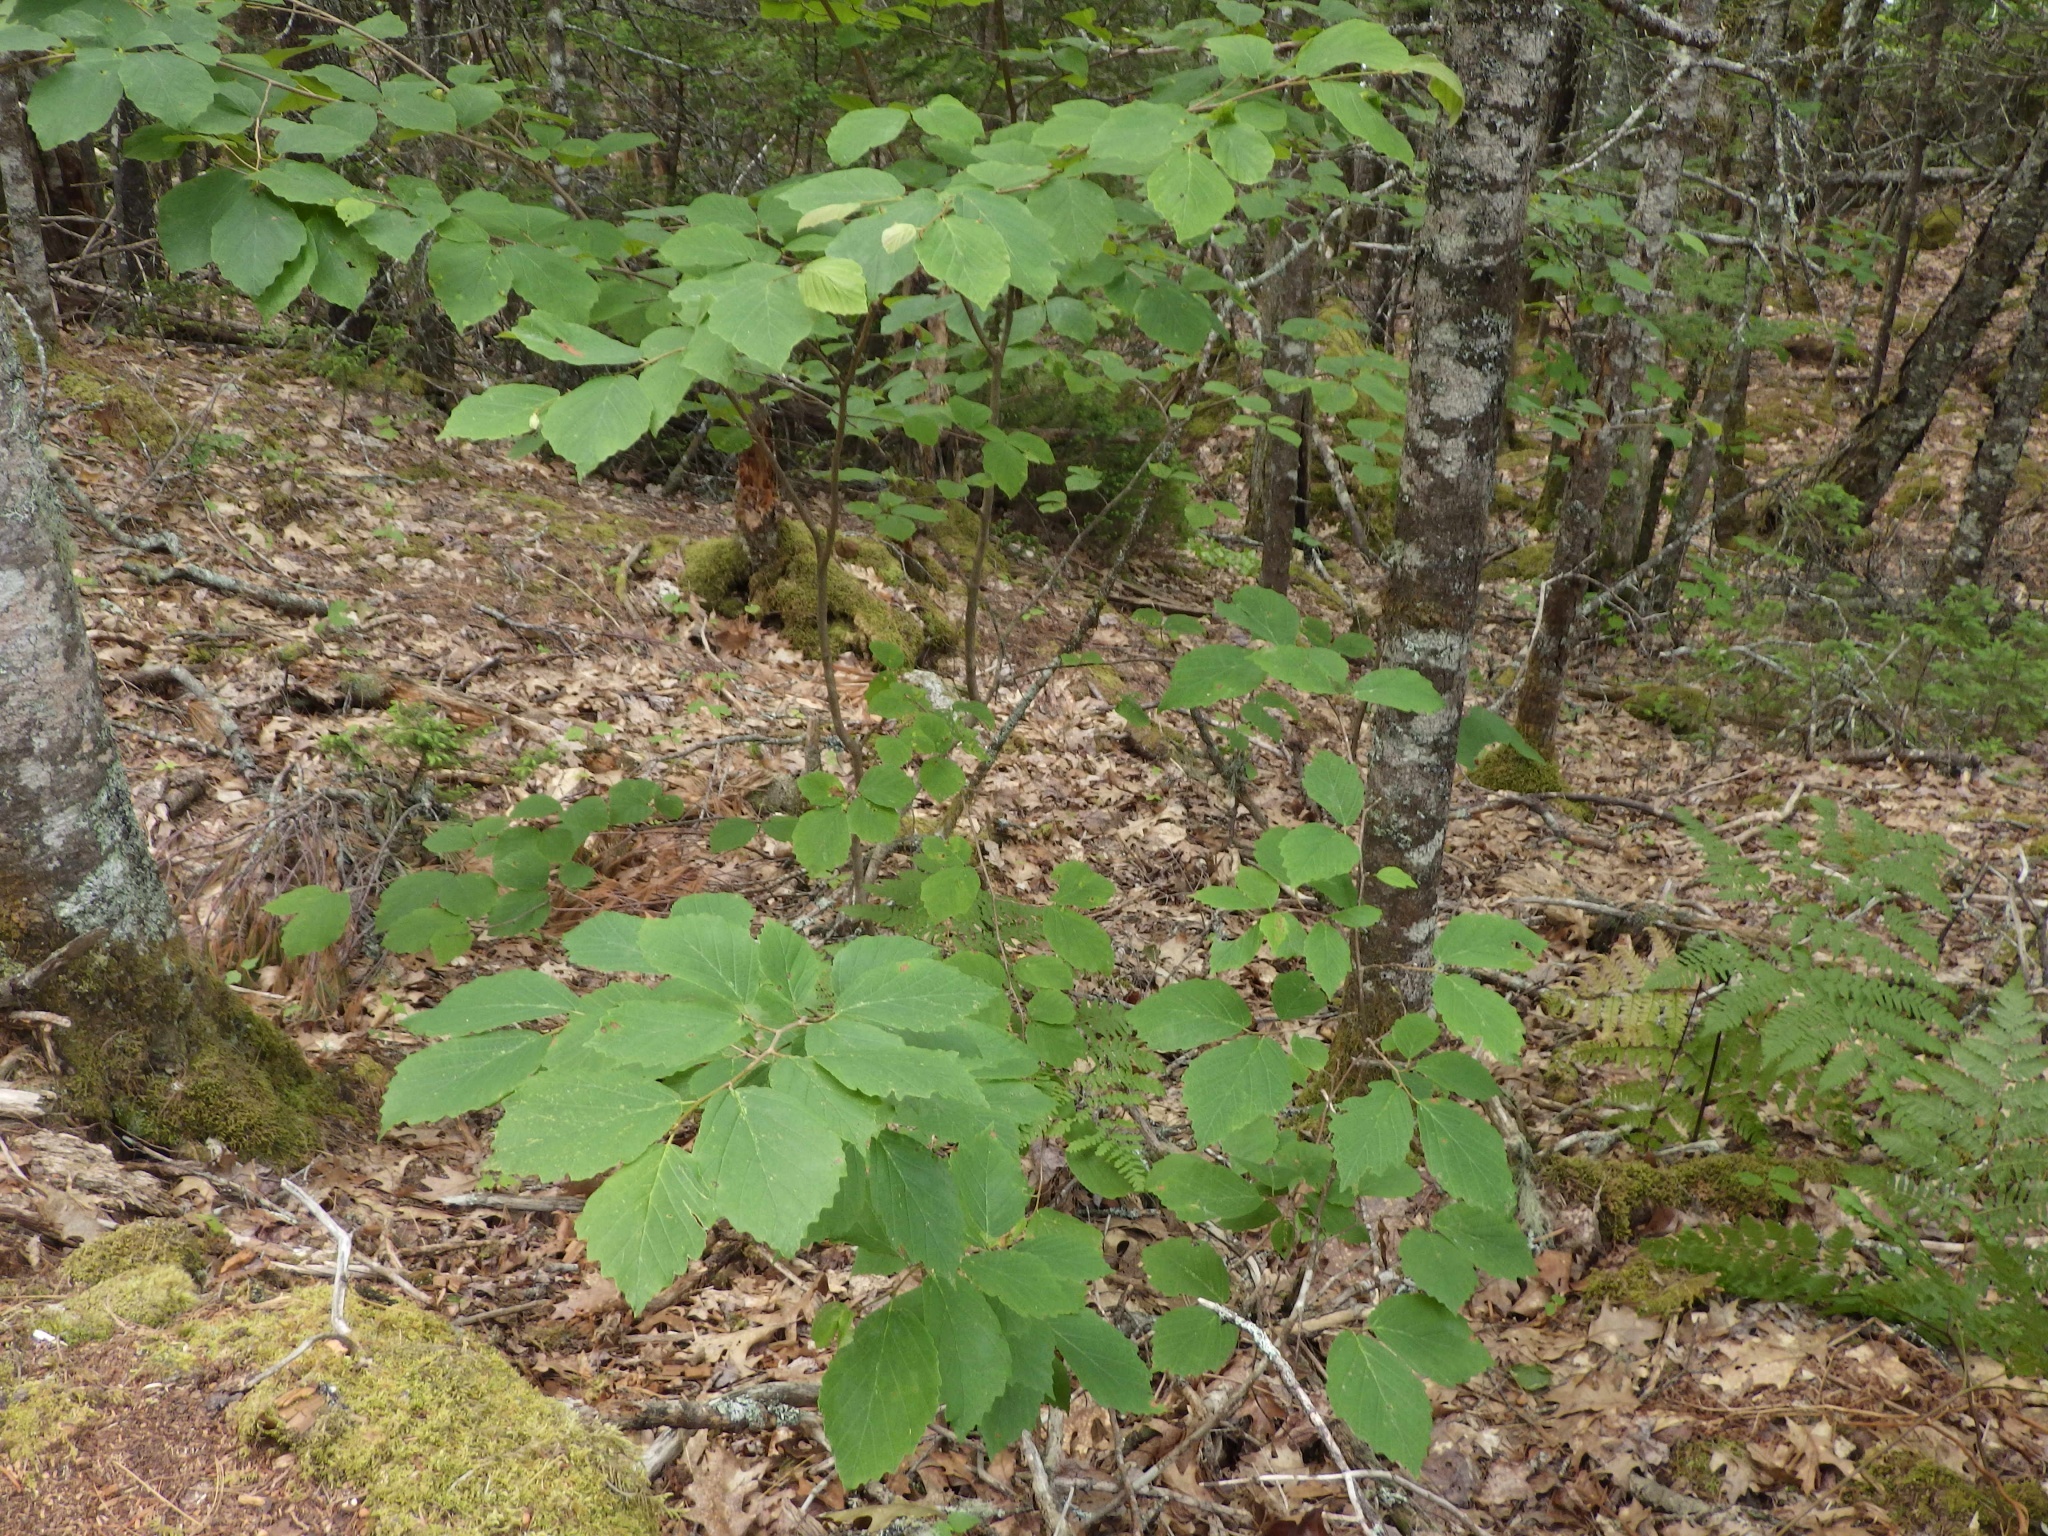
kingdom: Plantae
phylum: Tracheophyta
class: Magnoliopsida
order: Saxifragales
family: Hamamelidaceae
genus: Hamamelis
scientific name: Hamamelis virginiana
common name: Witch-hazel
